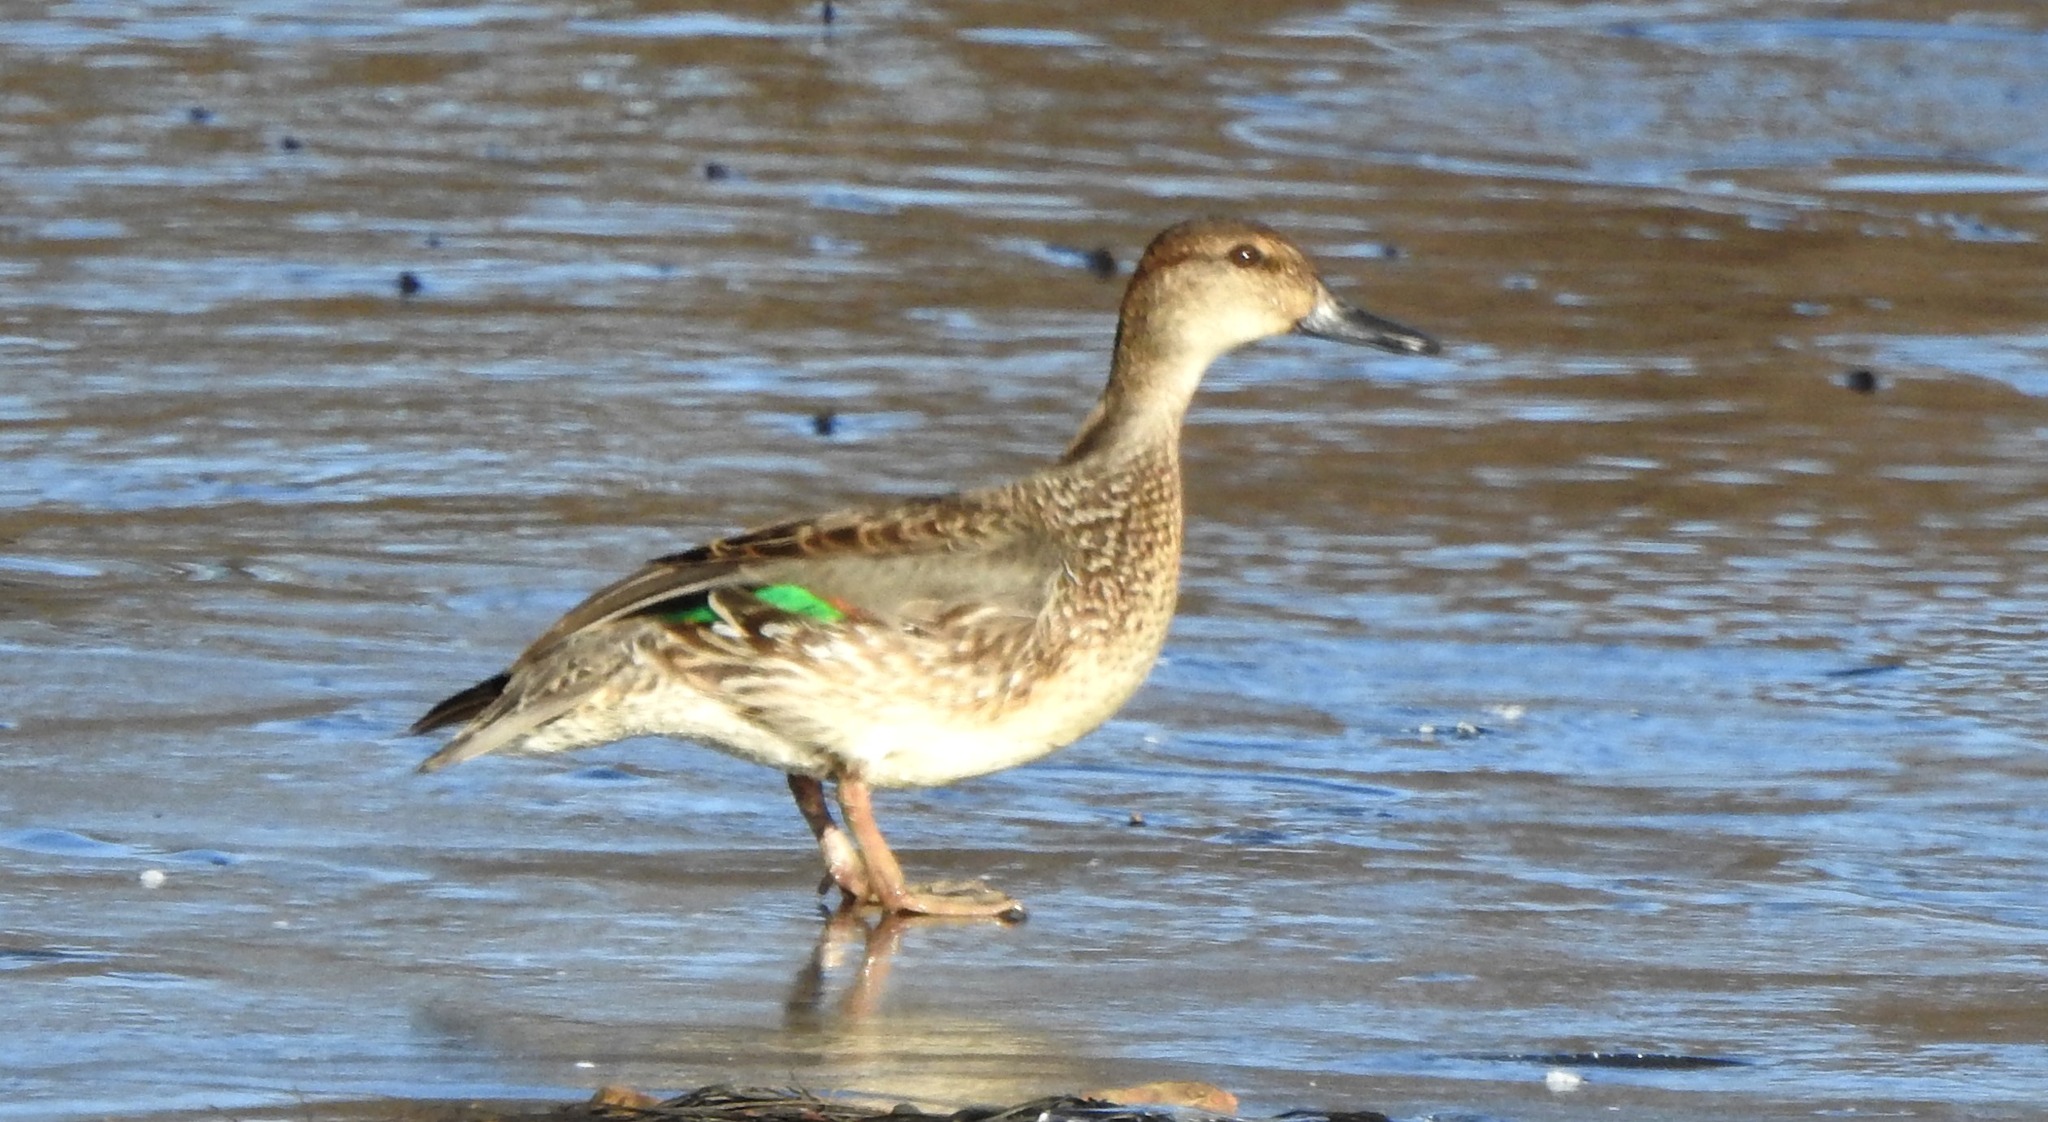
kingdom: Animalia
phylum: Chordata
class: Aves
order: Anseriformes
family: Anatidae
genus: Anas
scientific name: Anas crecca
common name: Eurasian teal
